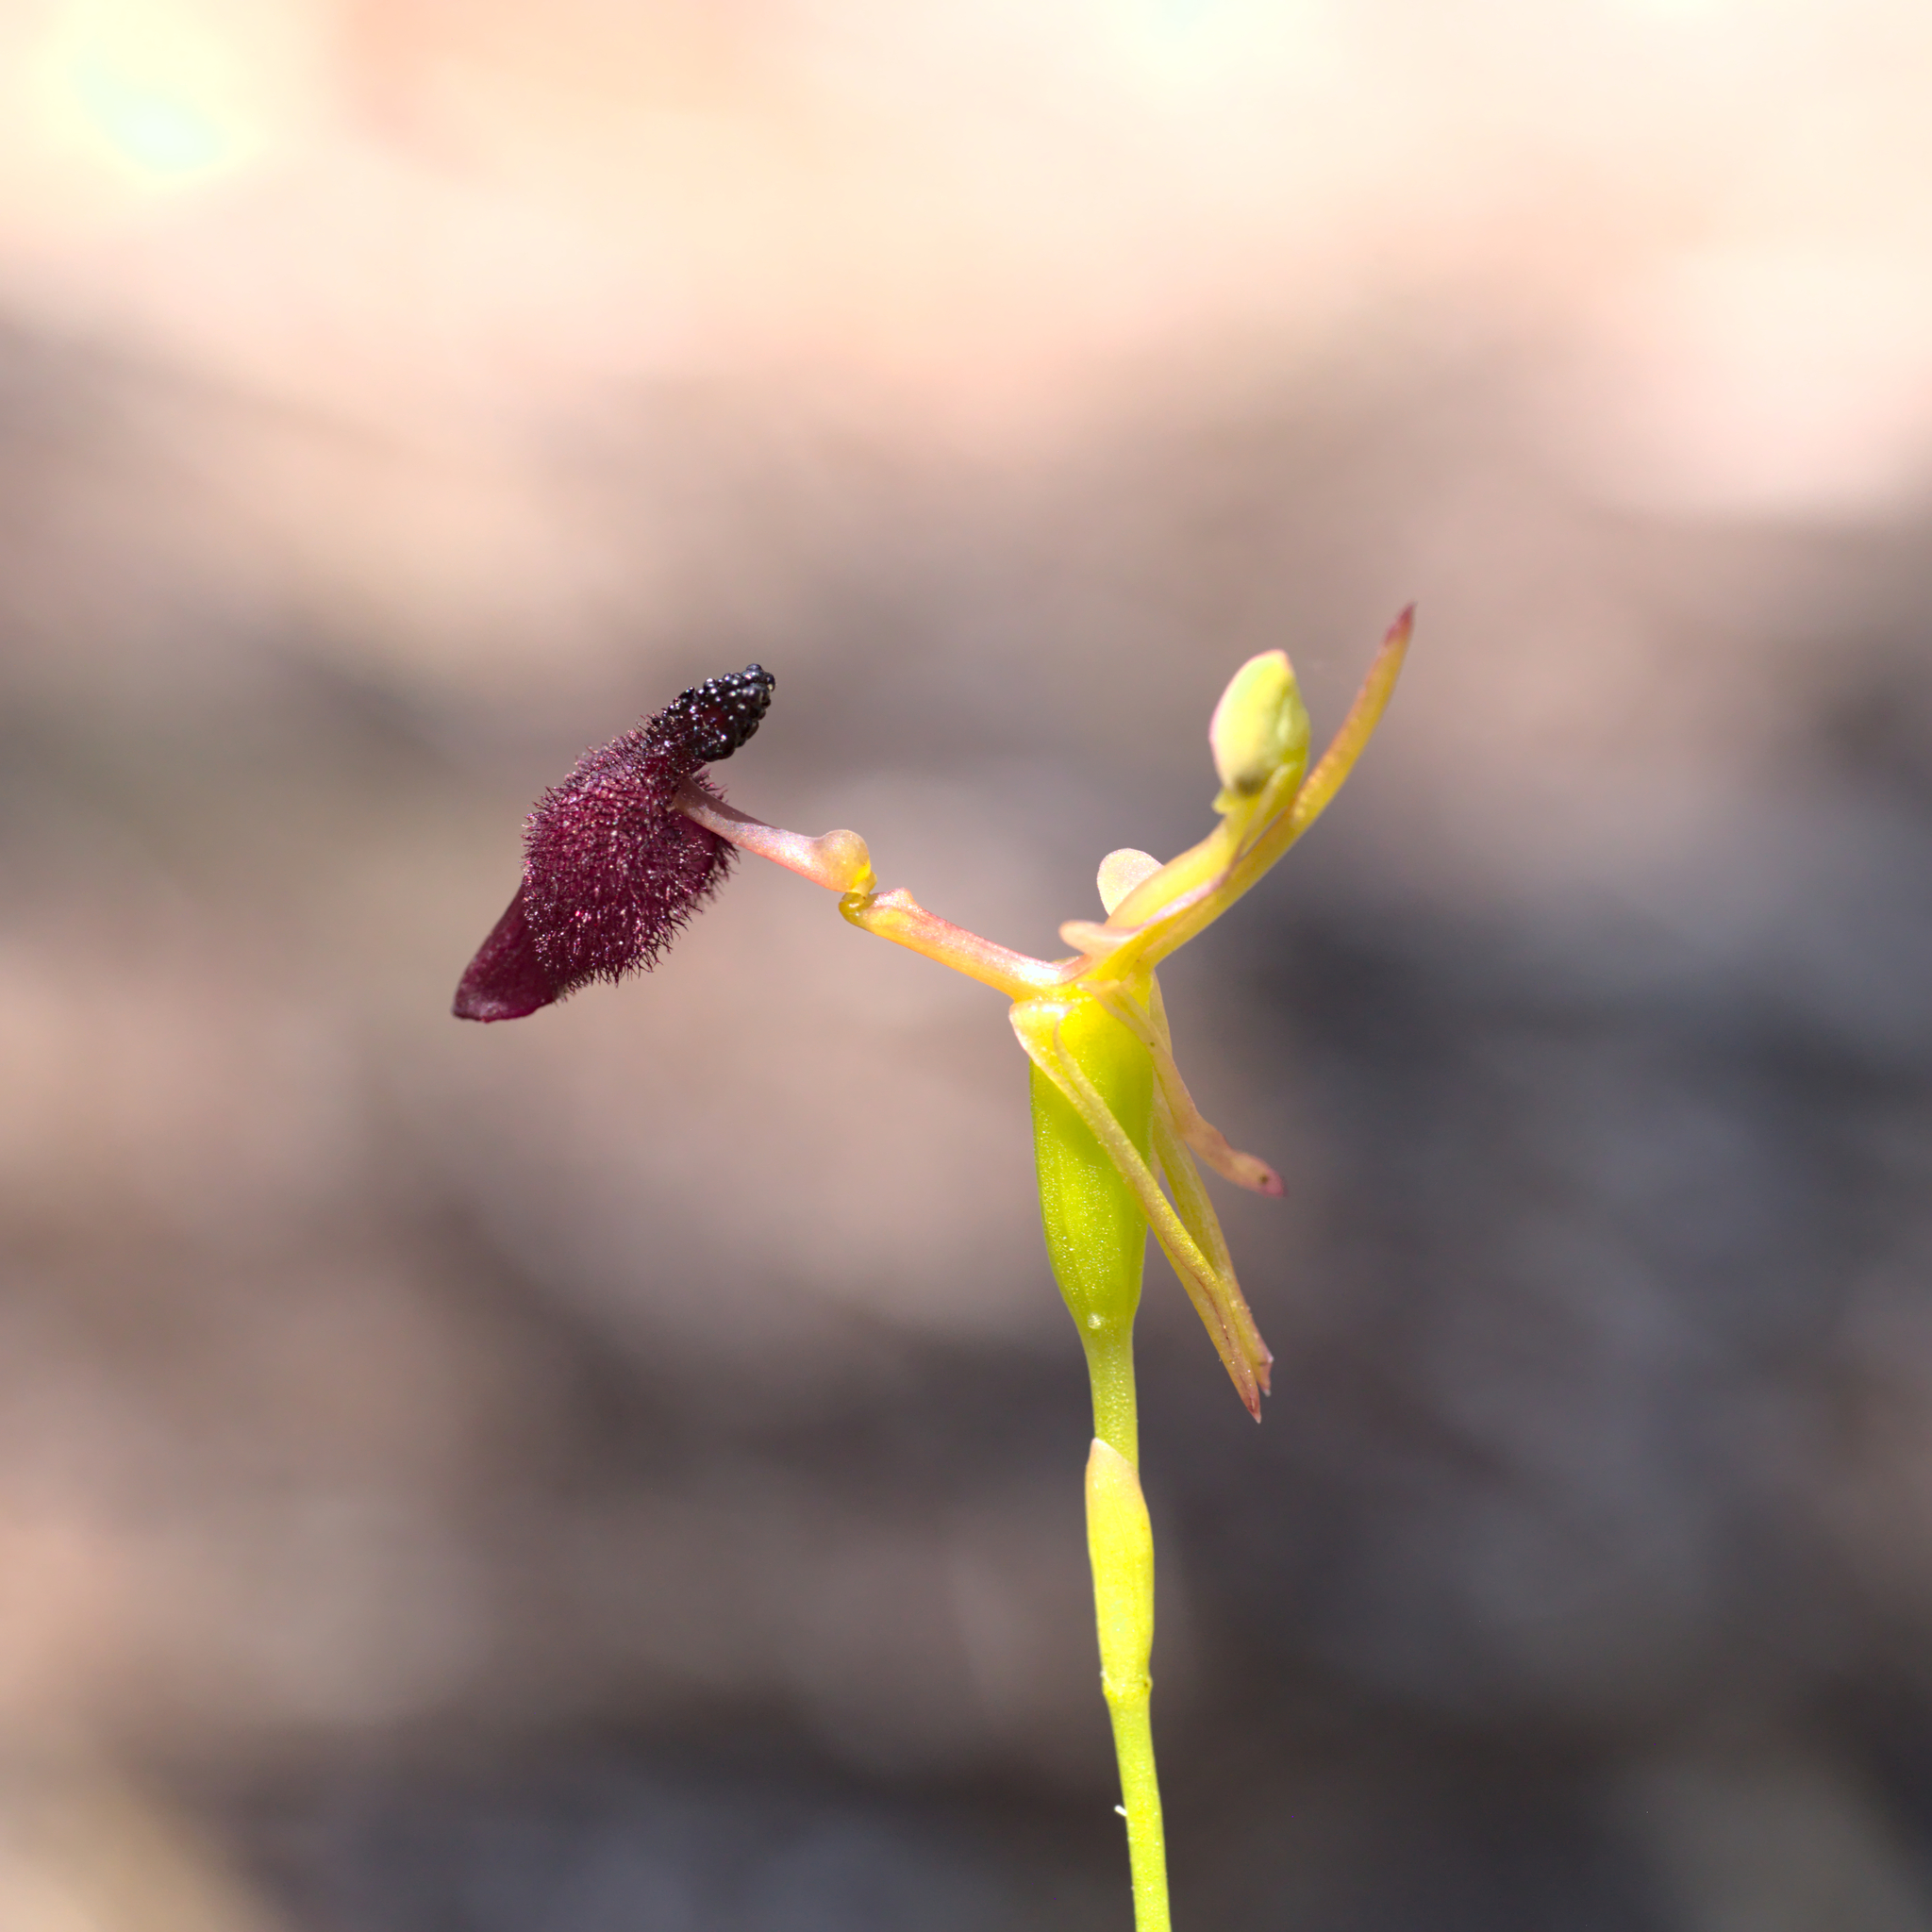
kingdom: Plantae
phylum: Tracheophyta
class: Liliopsida
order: Asparagales
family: Orchidaceae
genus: Drakaea
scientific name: Drakaea glyptodon
